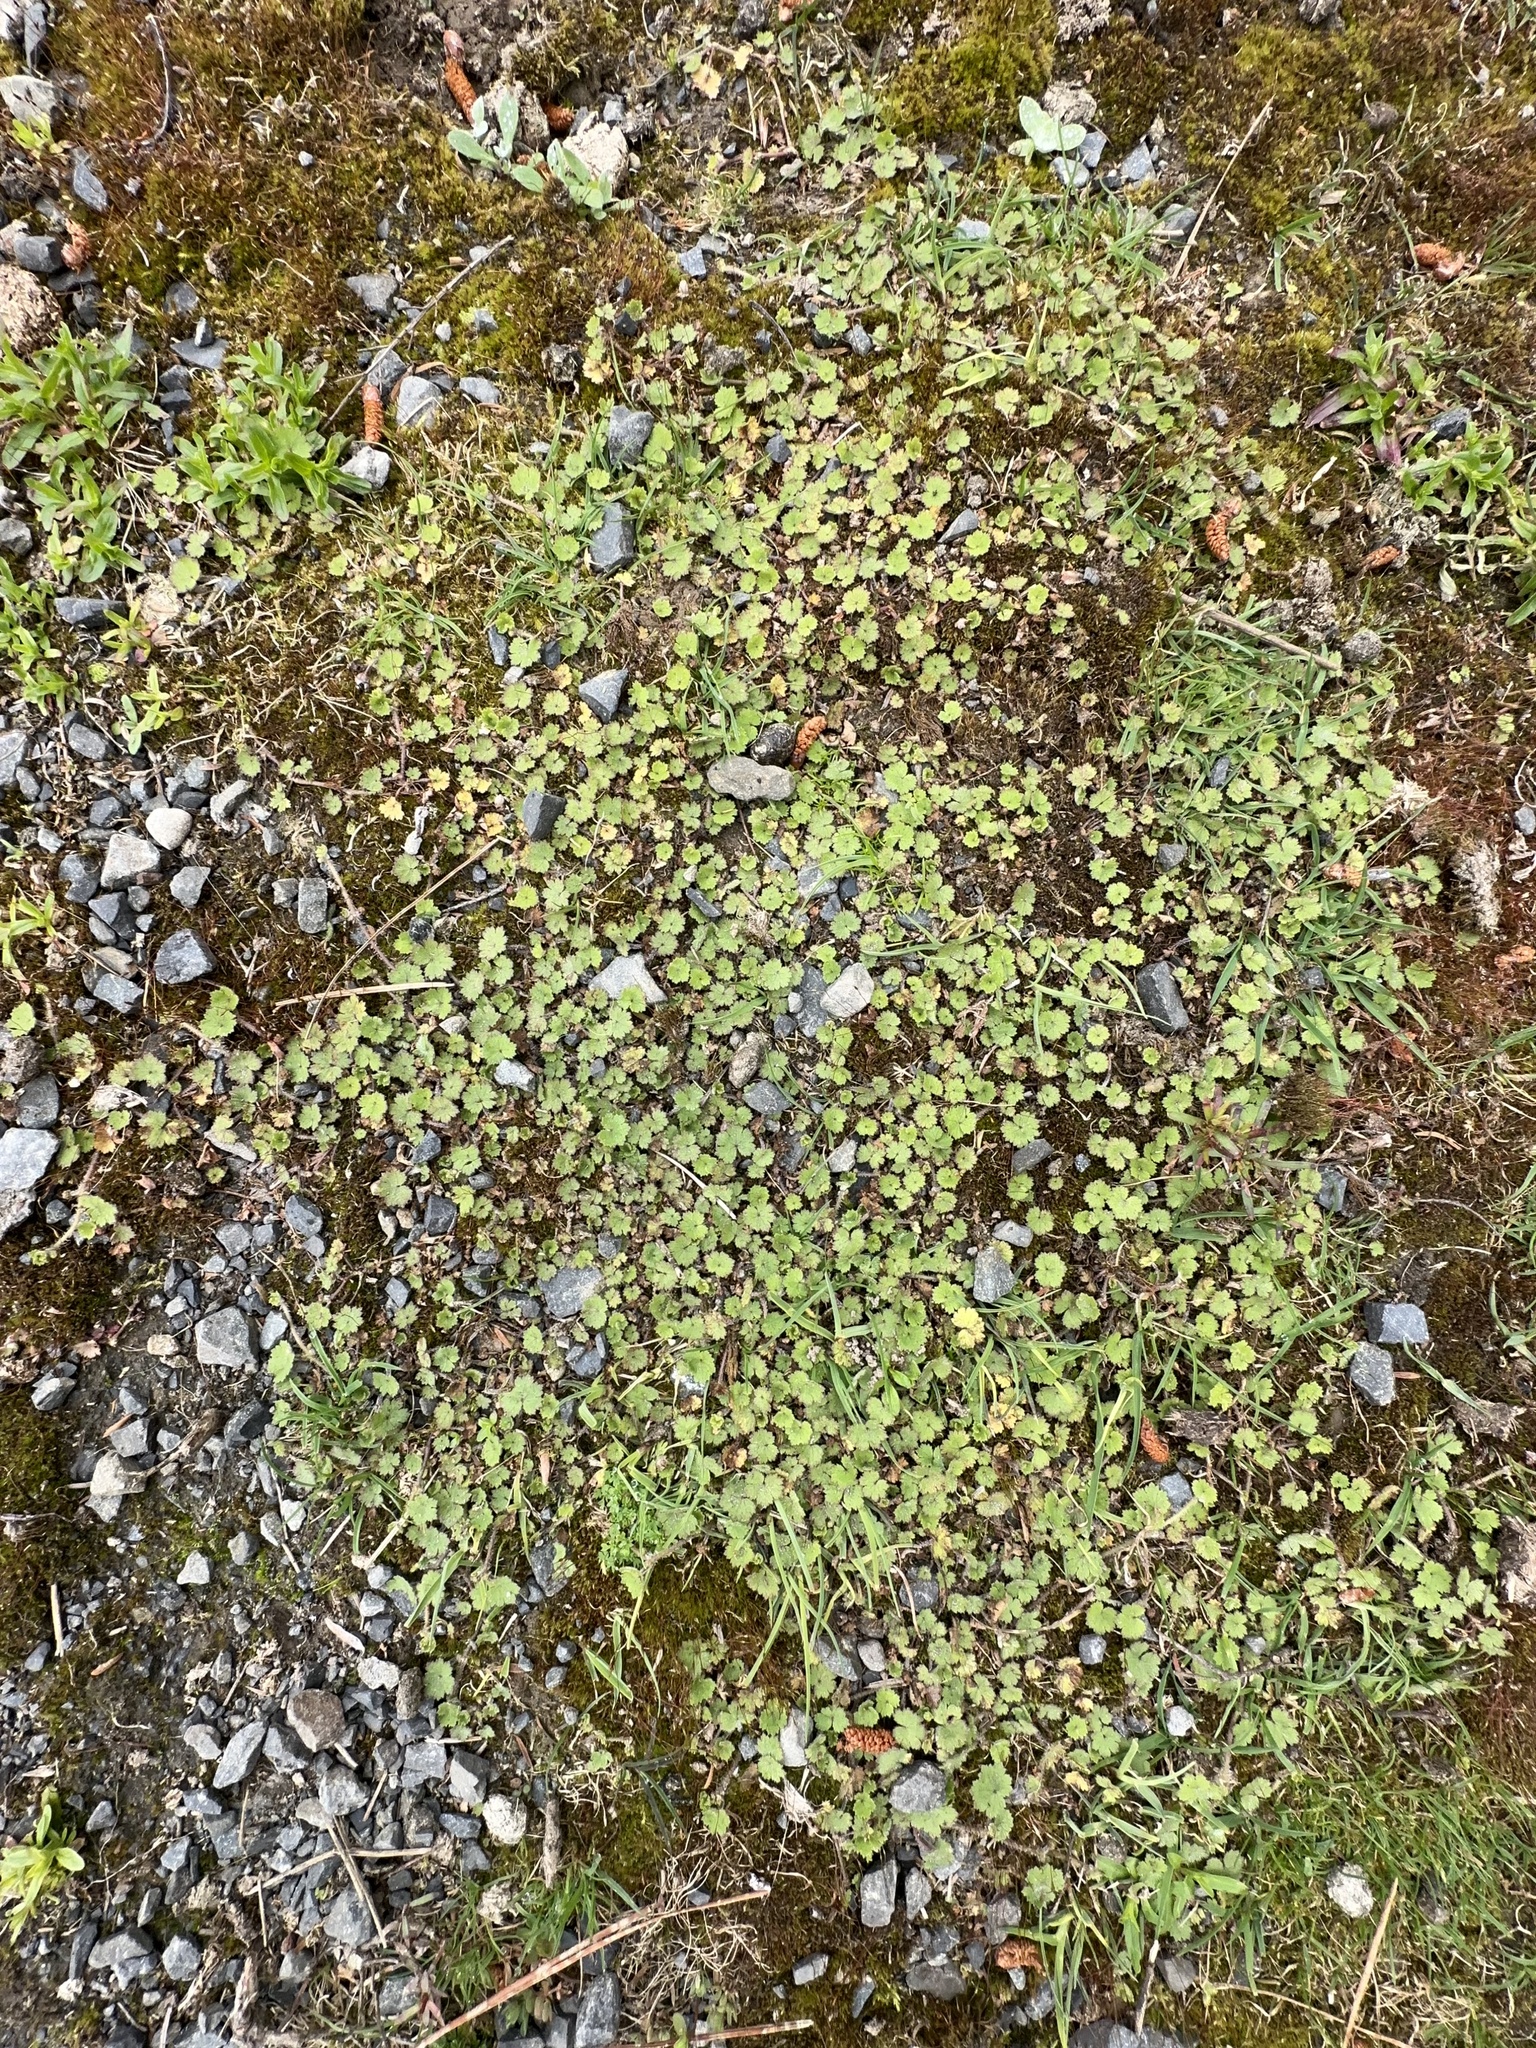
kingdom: Plantae
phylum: Tracheophyta
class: Magnoliopsida
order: Apiales
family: Araliaceae
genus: Hydrocotyle
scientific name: Hydrocotyle moschata
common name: Hairy pennywort
